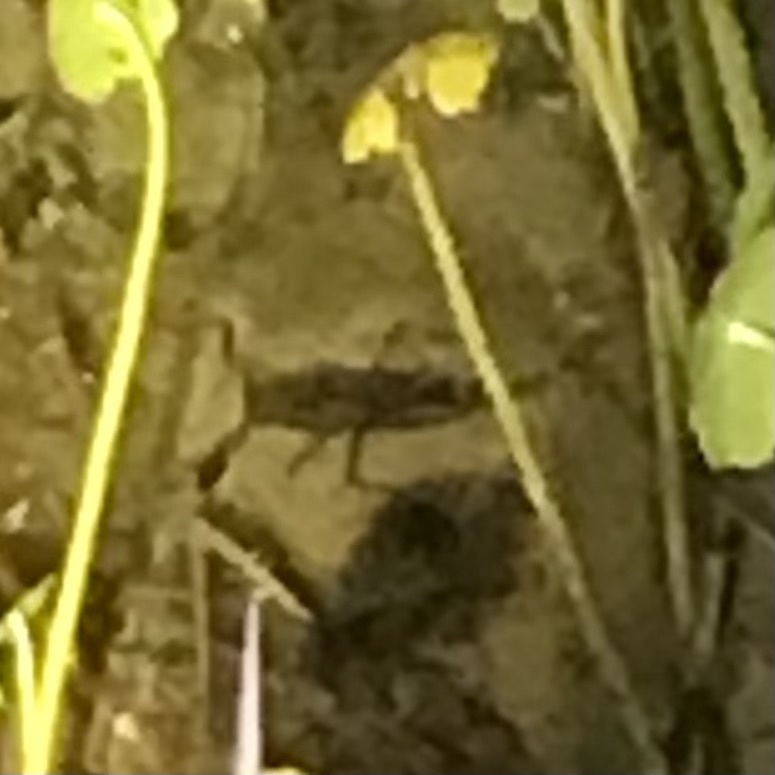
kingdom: Animalia
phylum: Arthropoda
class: Insecta
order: Hemiptera
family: Nepidae
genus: Laccotrephes
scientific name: Laccotrephes tristis
